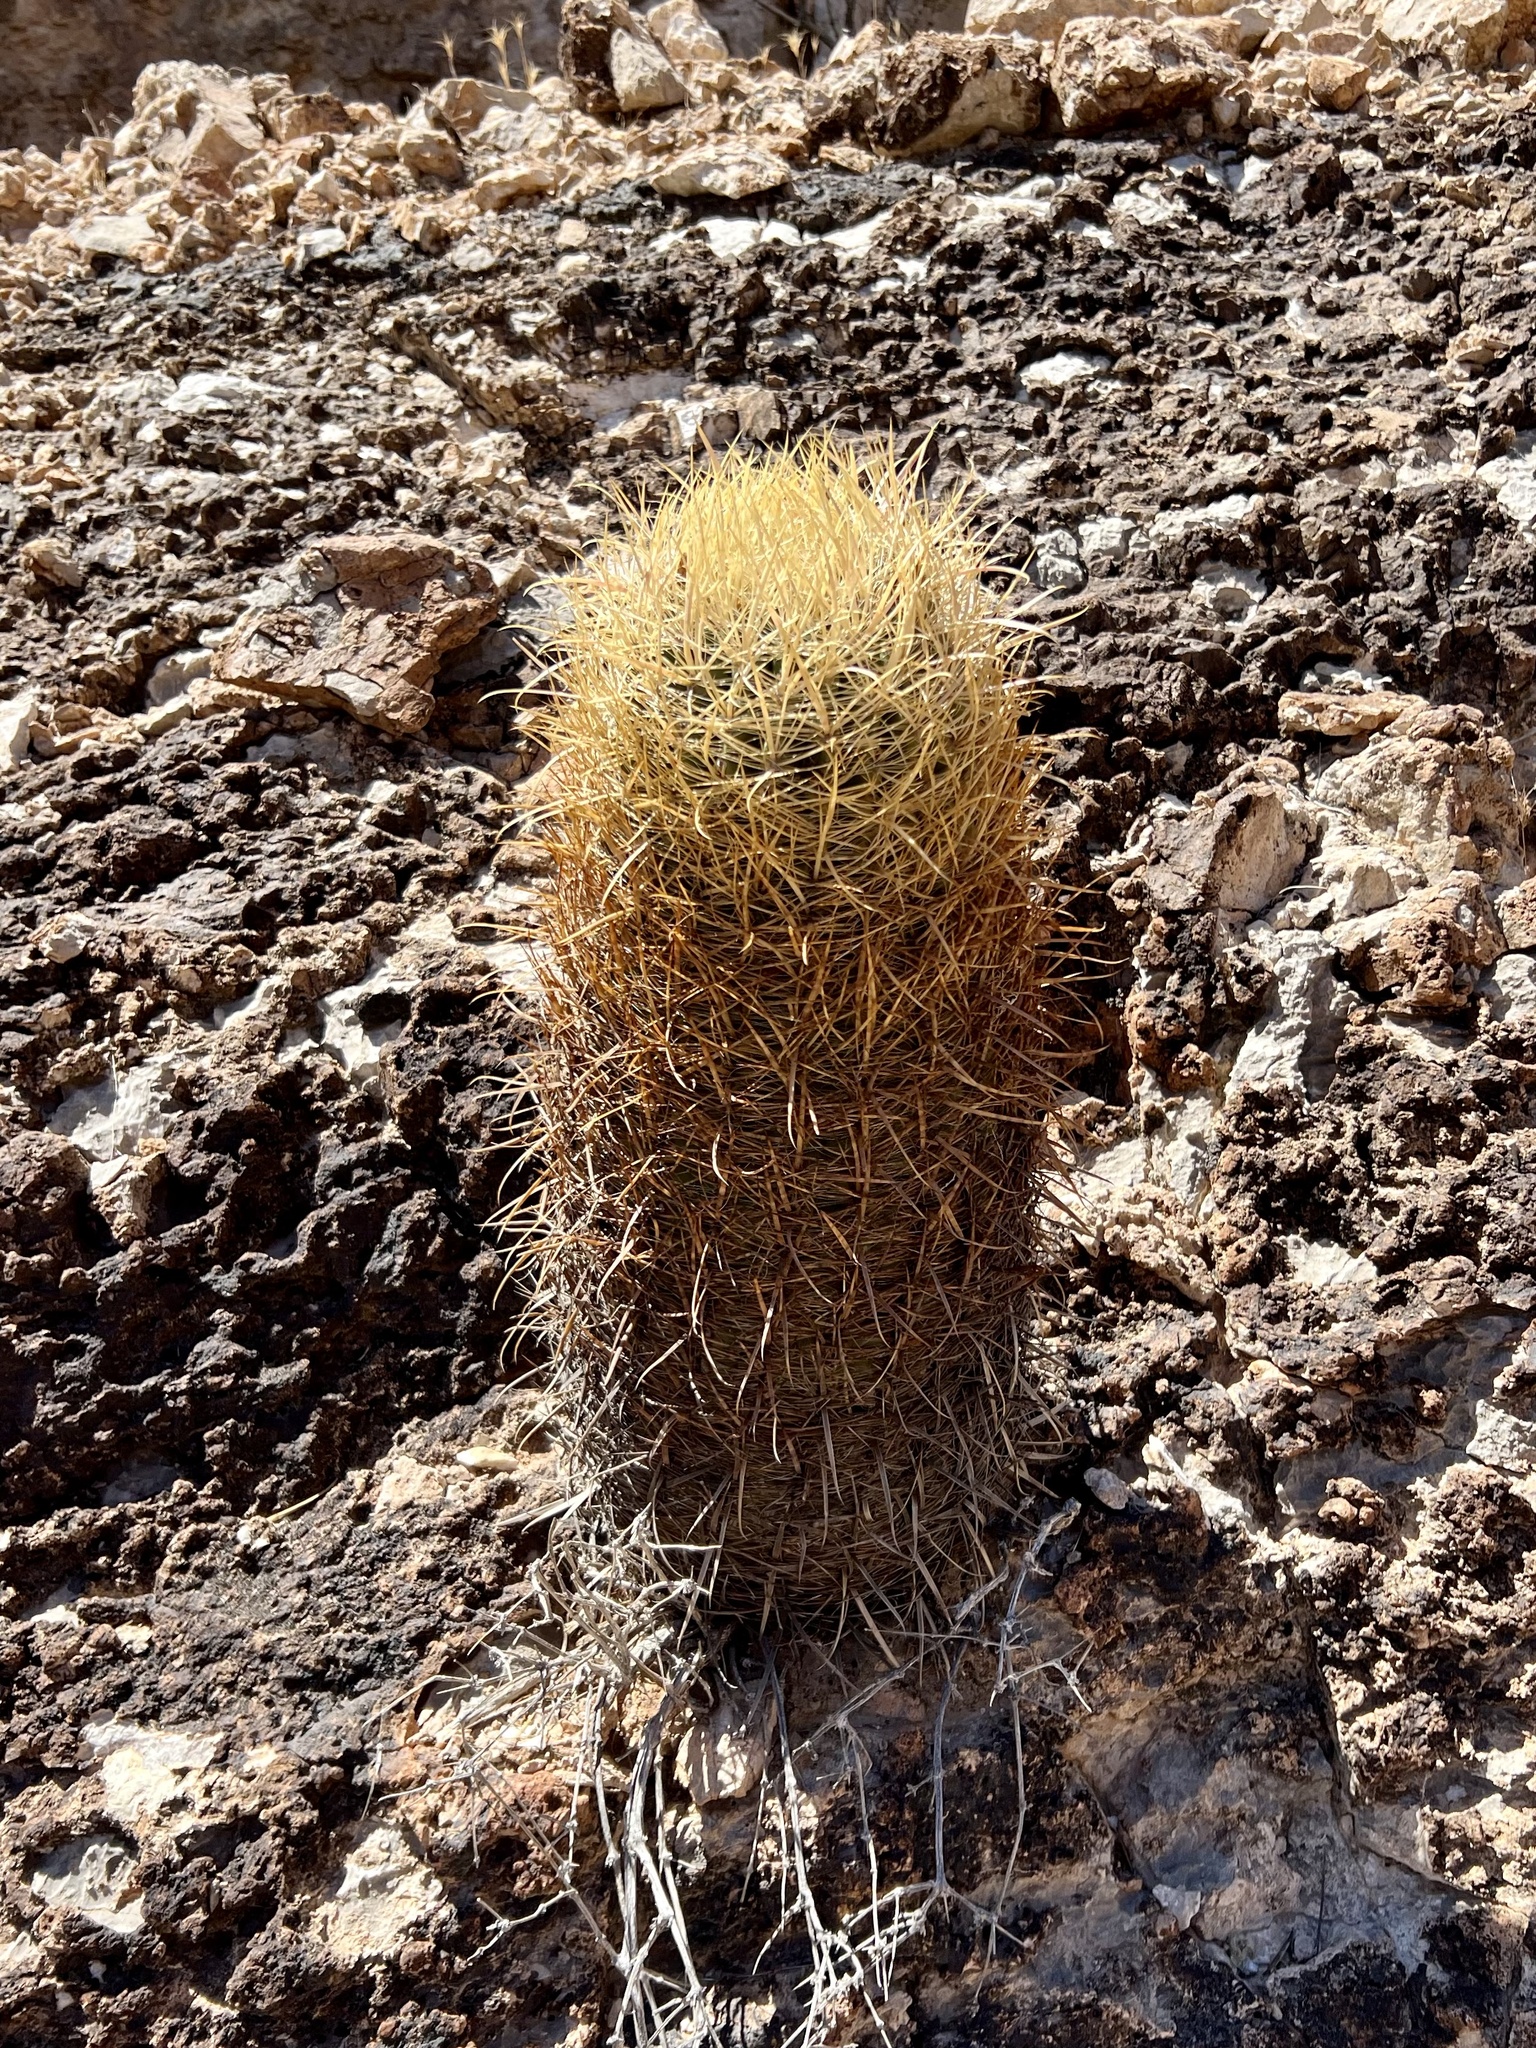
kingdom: Plantae
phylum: Tracheophyta
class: Magnoliopsida
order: Caryophyllales
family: Cactaceae
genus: Ferocactus
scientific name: Ferocactus cylindraceus
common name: California barrel cactus
